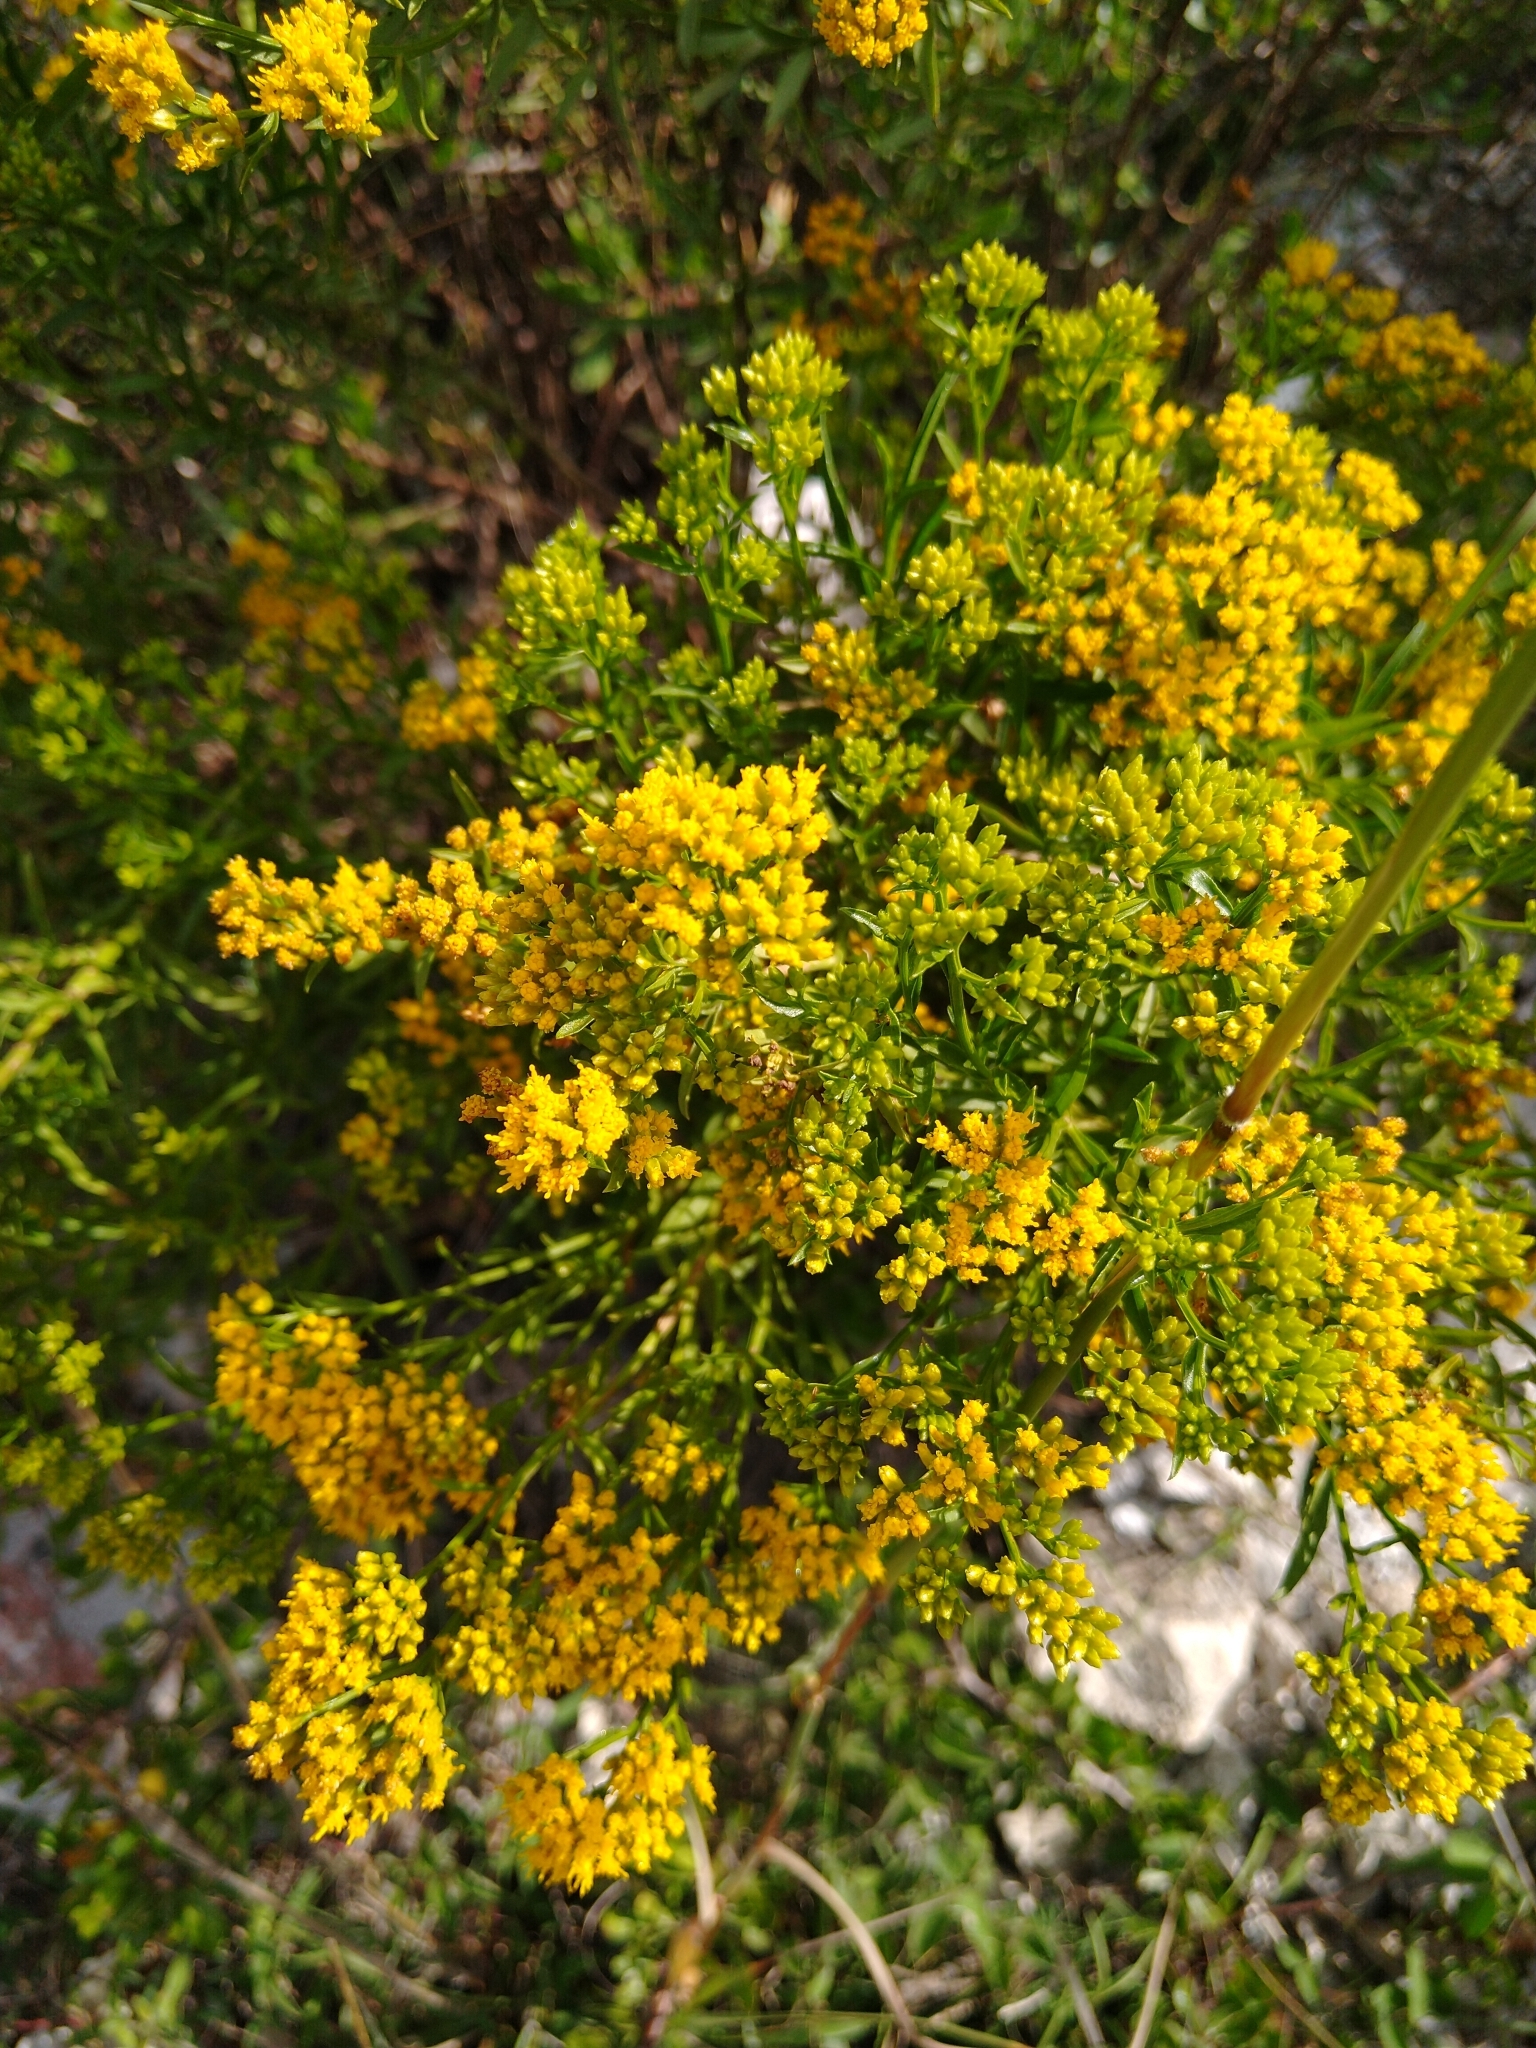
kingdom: Plantae
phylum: Tracheophyta
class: Magnoliopsida
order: Asterales
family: Asteraceae
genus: Gymnosperma
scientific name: Gymnosperma glutinosum
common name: Gumhead
